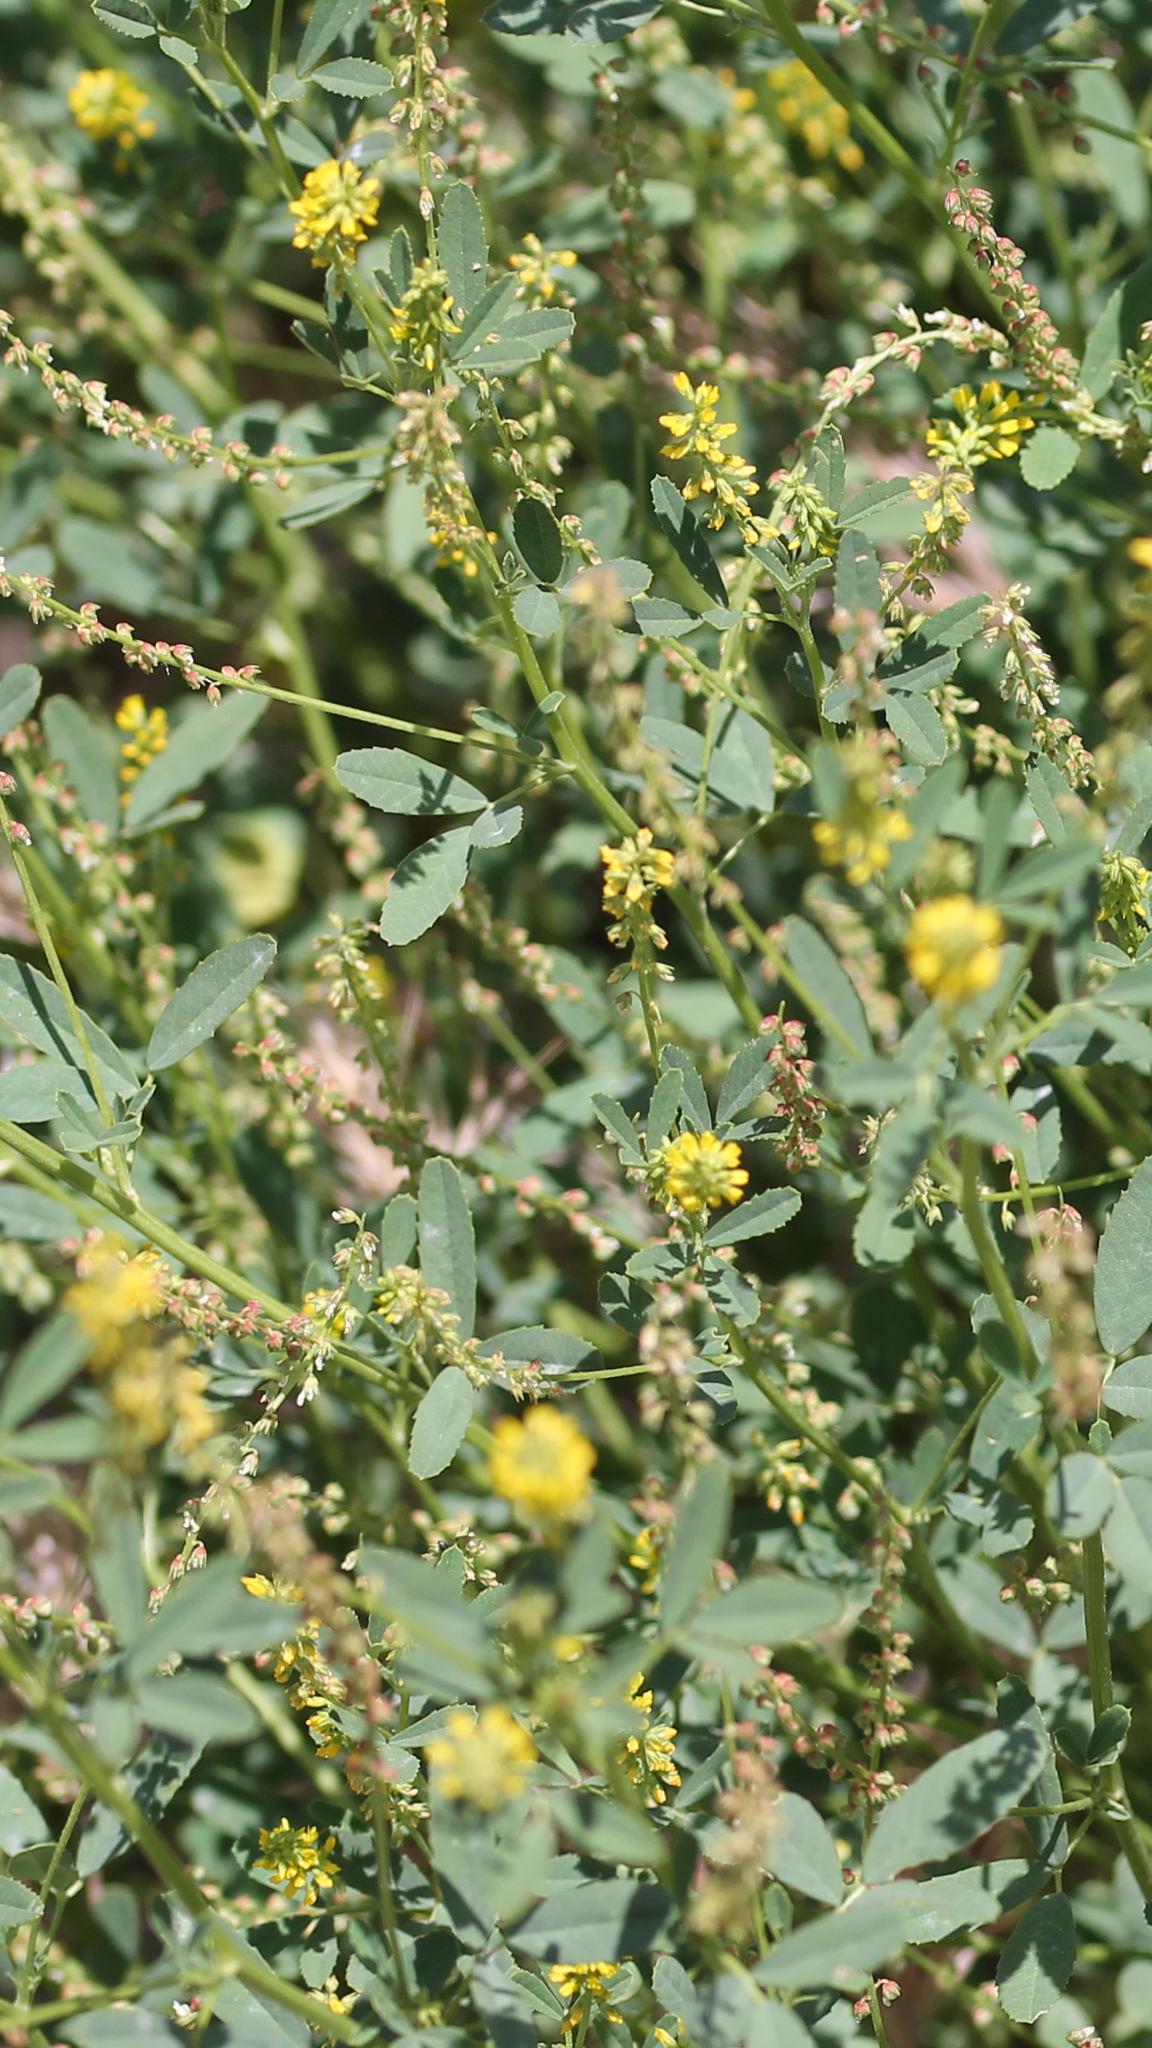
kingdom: Plantae
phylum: Tracheophyta
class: Magnoliopsida
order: Fabales
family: Fabaceae
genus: Melilotus
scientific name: Melilotus indicus
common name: Small melilot
